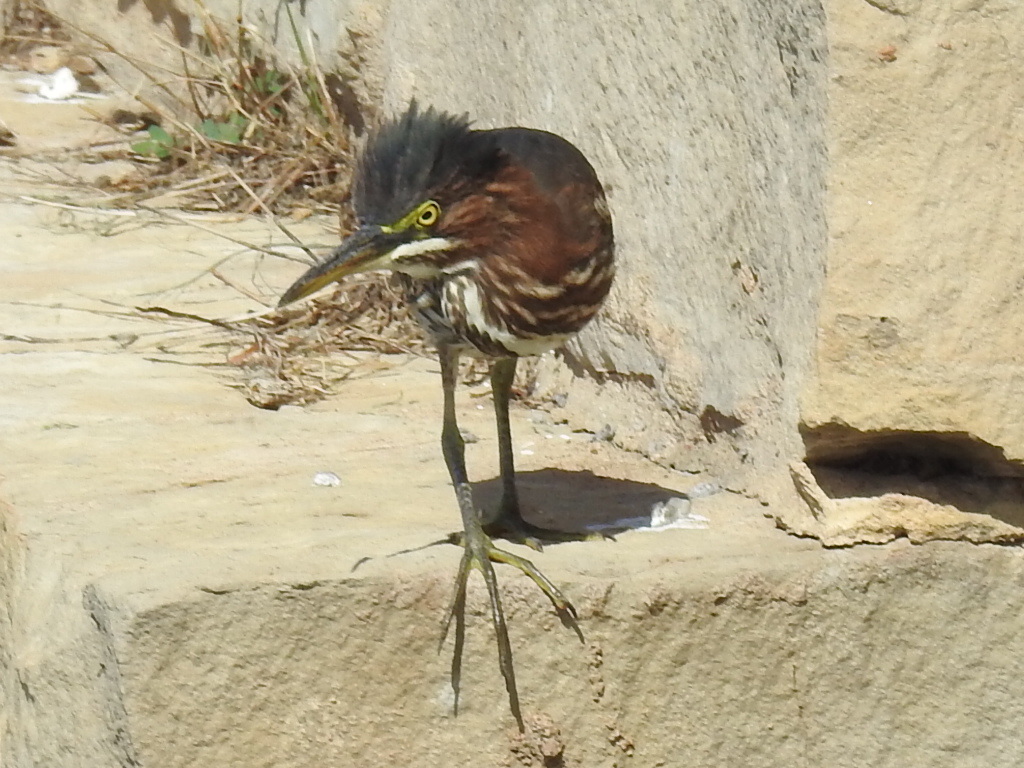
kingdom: Animalia
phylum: Chordata
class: Aves
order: Pelecaniformes
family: Ardeidae
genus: Butorides
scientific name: Butorides virescens
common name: Green heron
